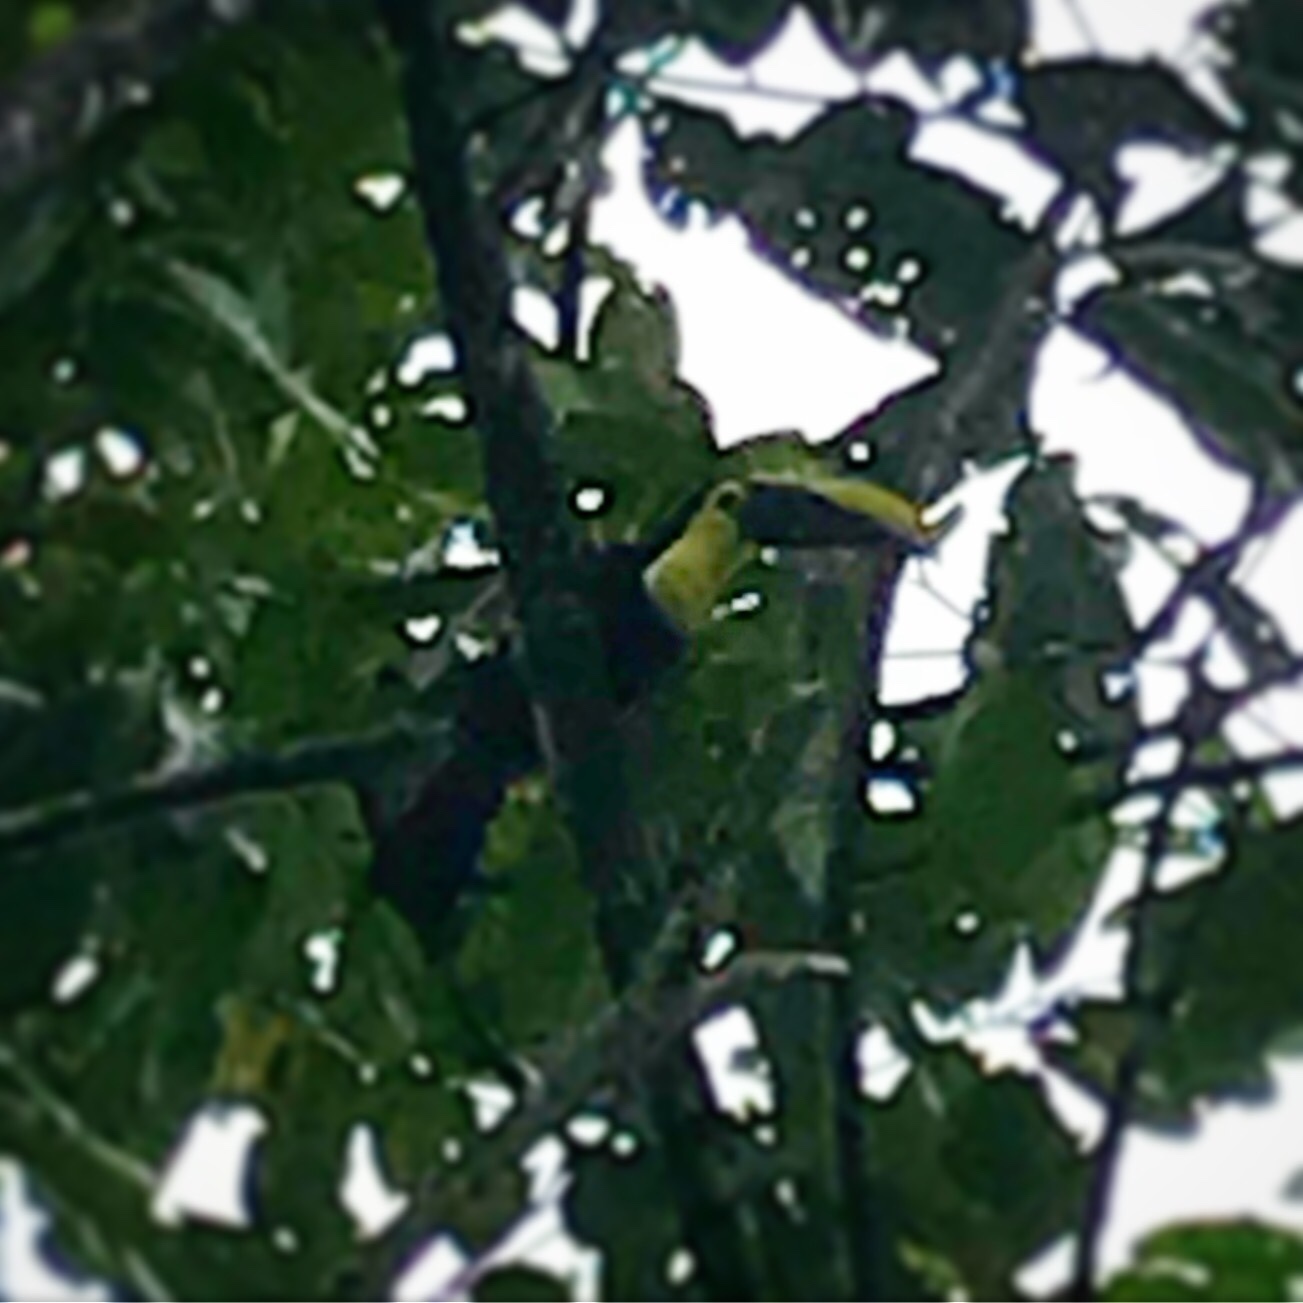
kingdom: Animalia
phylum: Chordata
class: Aves
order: Piciformes
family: Ramphastidae
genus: Ramphastos
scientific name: Ramphastos ambiguus
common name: Yellow-throated toucan
